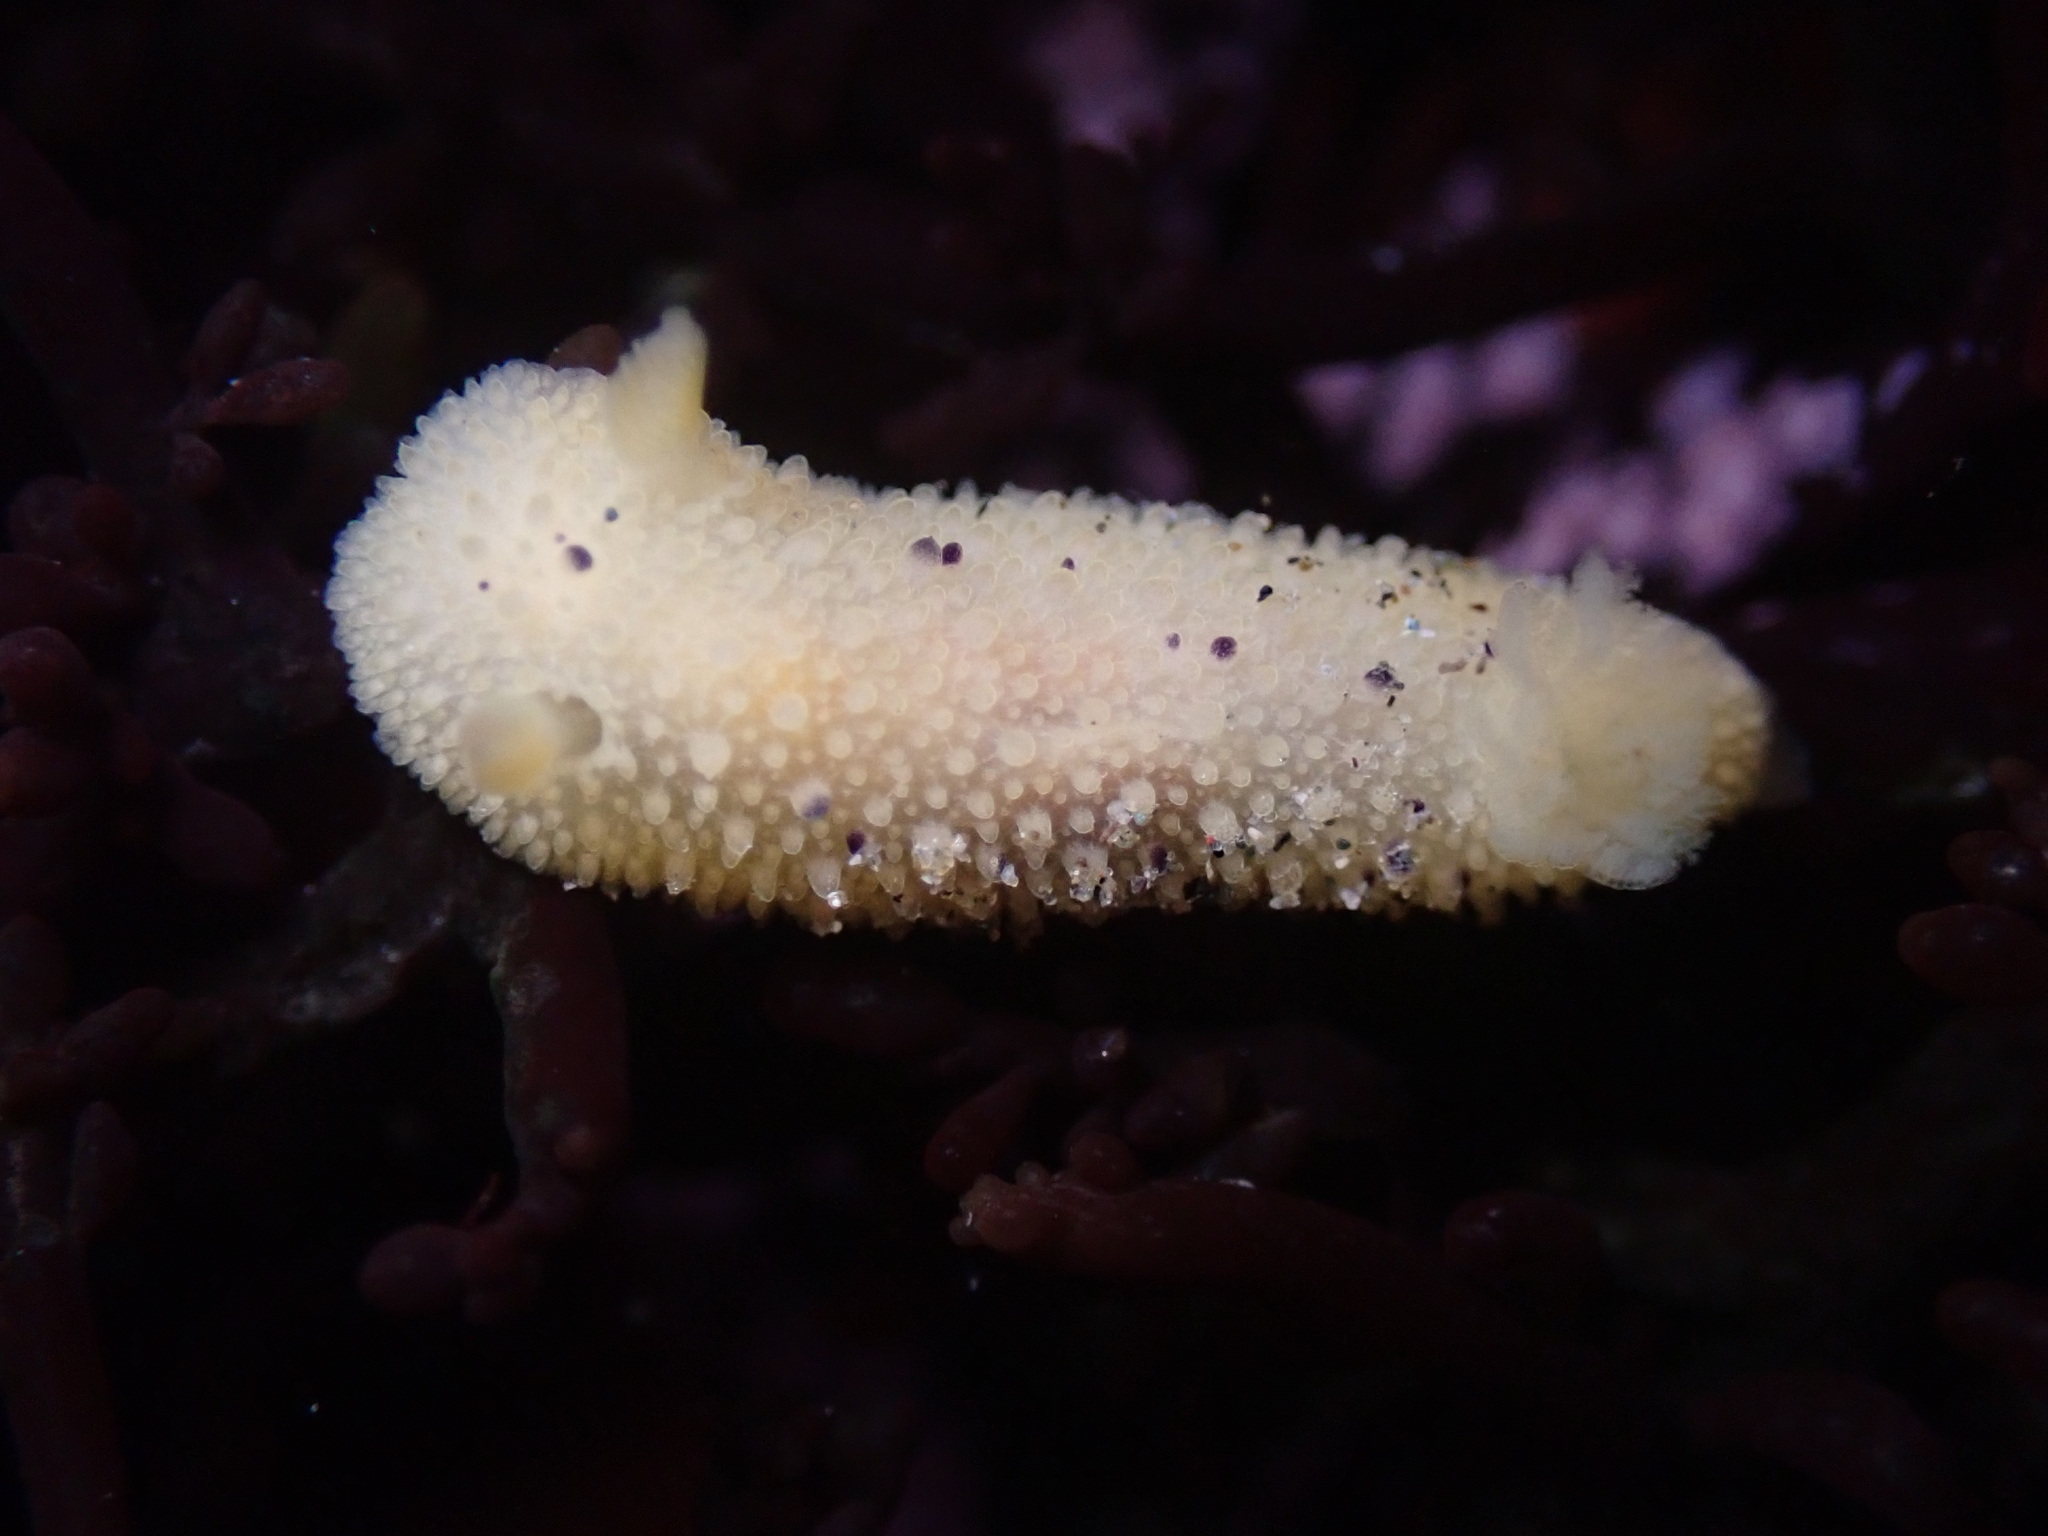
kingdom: Animalia
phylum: Mollusca
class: Gastropoda
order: Nudibranchia
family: Dorididae
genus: Doris
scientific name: Doris montereyensis
